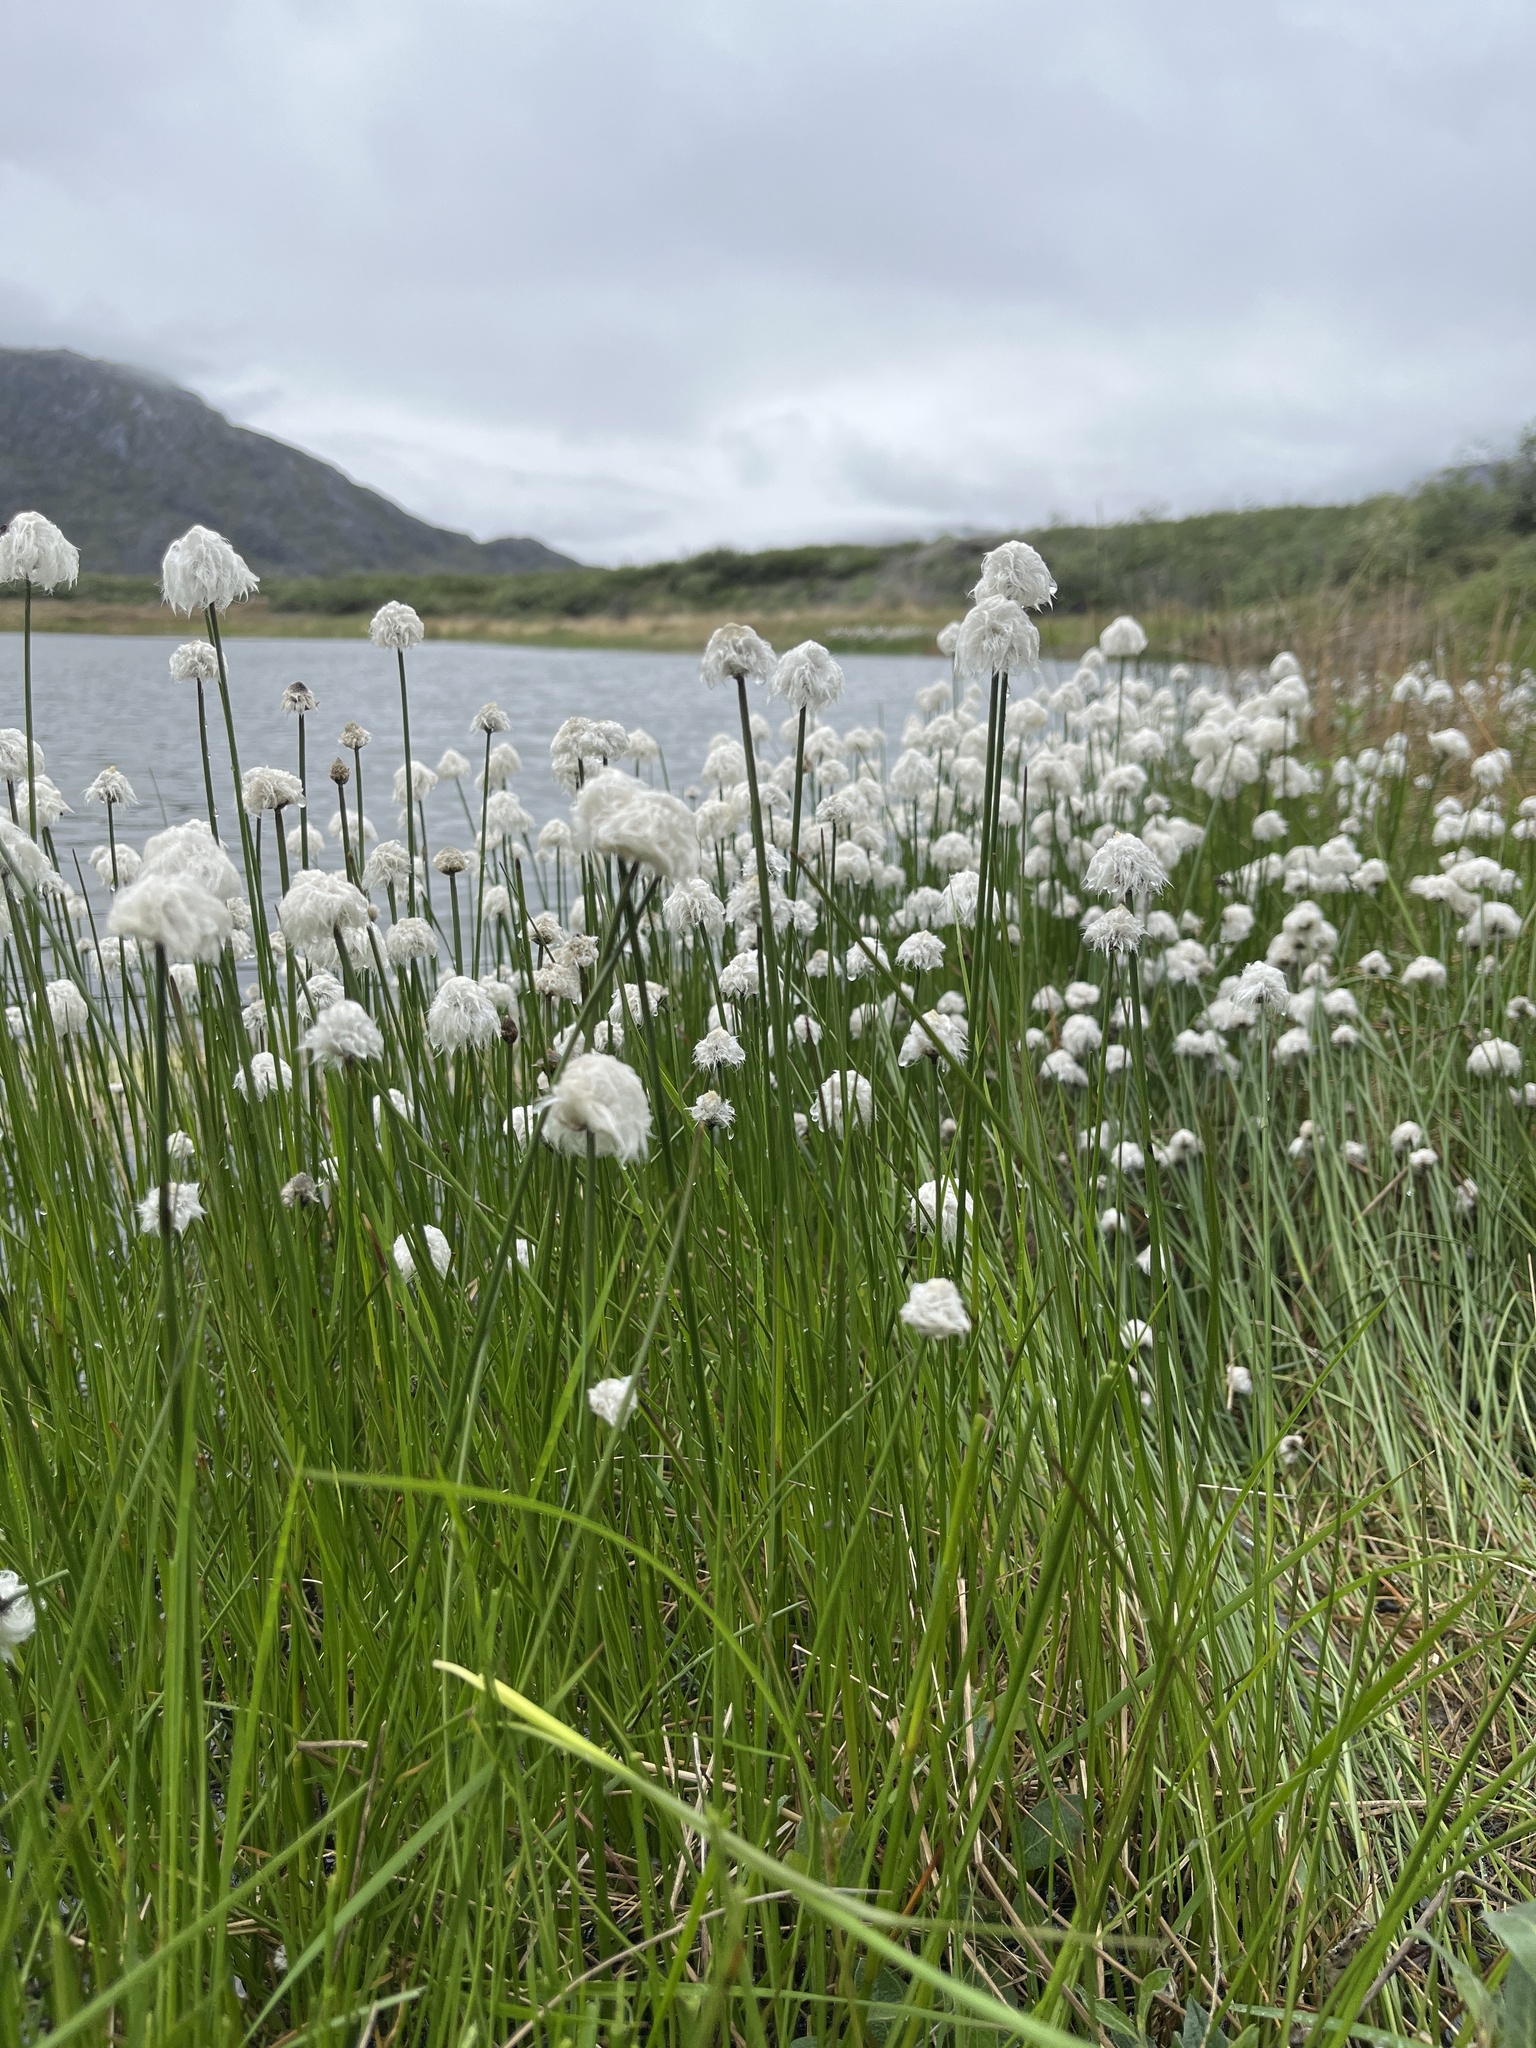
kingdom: Plantae
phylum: Tracheophyta
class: Liliopsida
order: Poales
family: Cyperaceae
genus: Eriophorum
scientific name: Eriophorum scheuchzeri
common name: Scheuchzer's cottongrass
